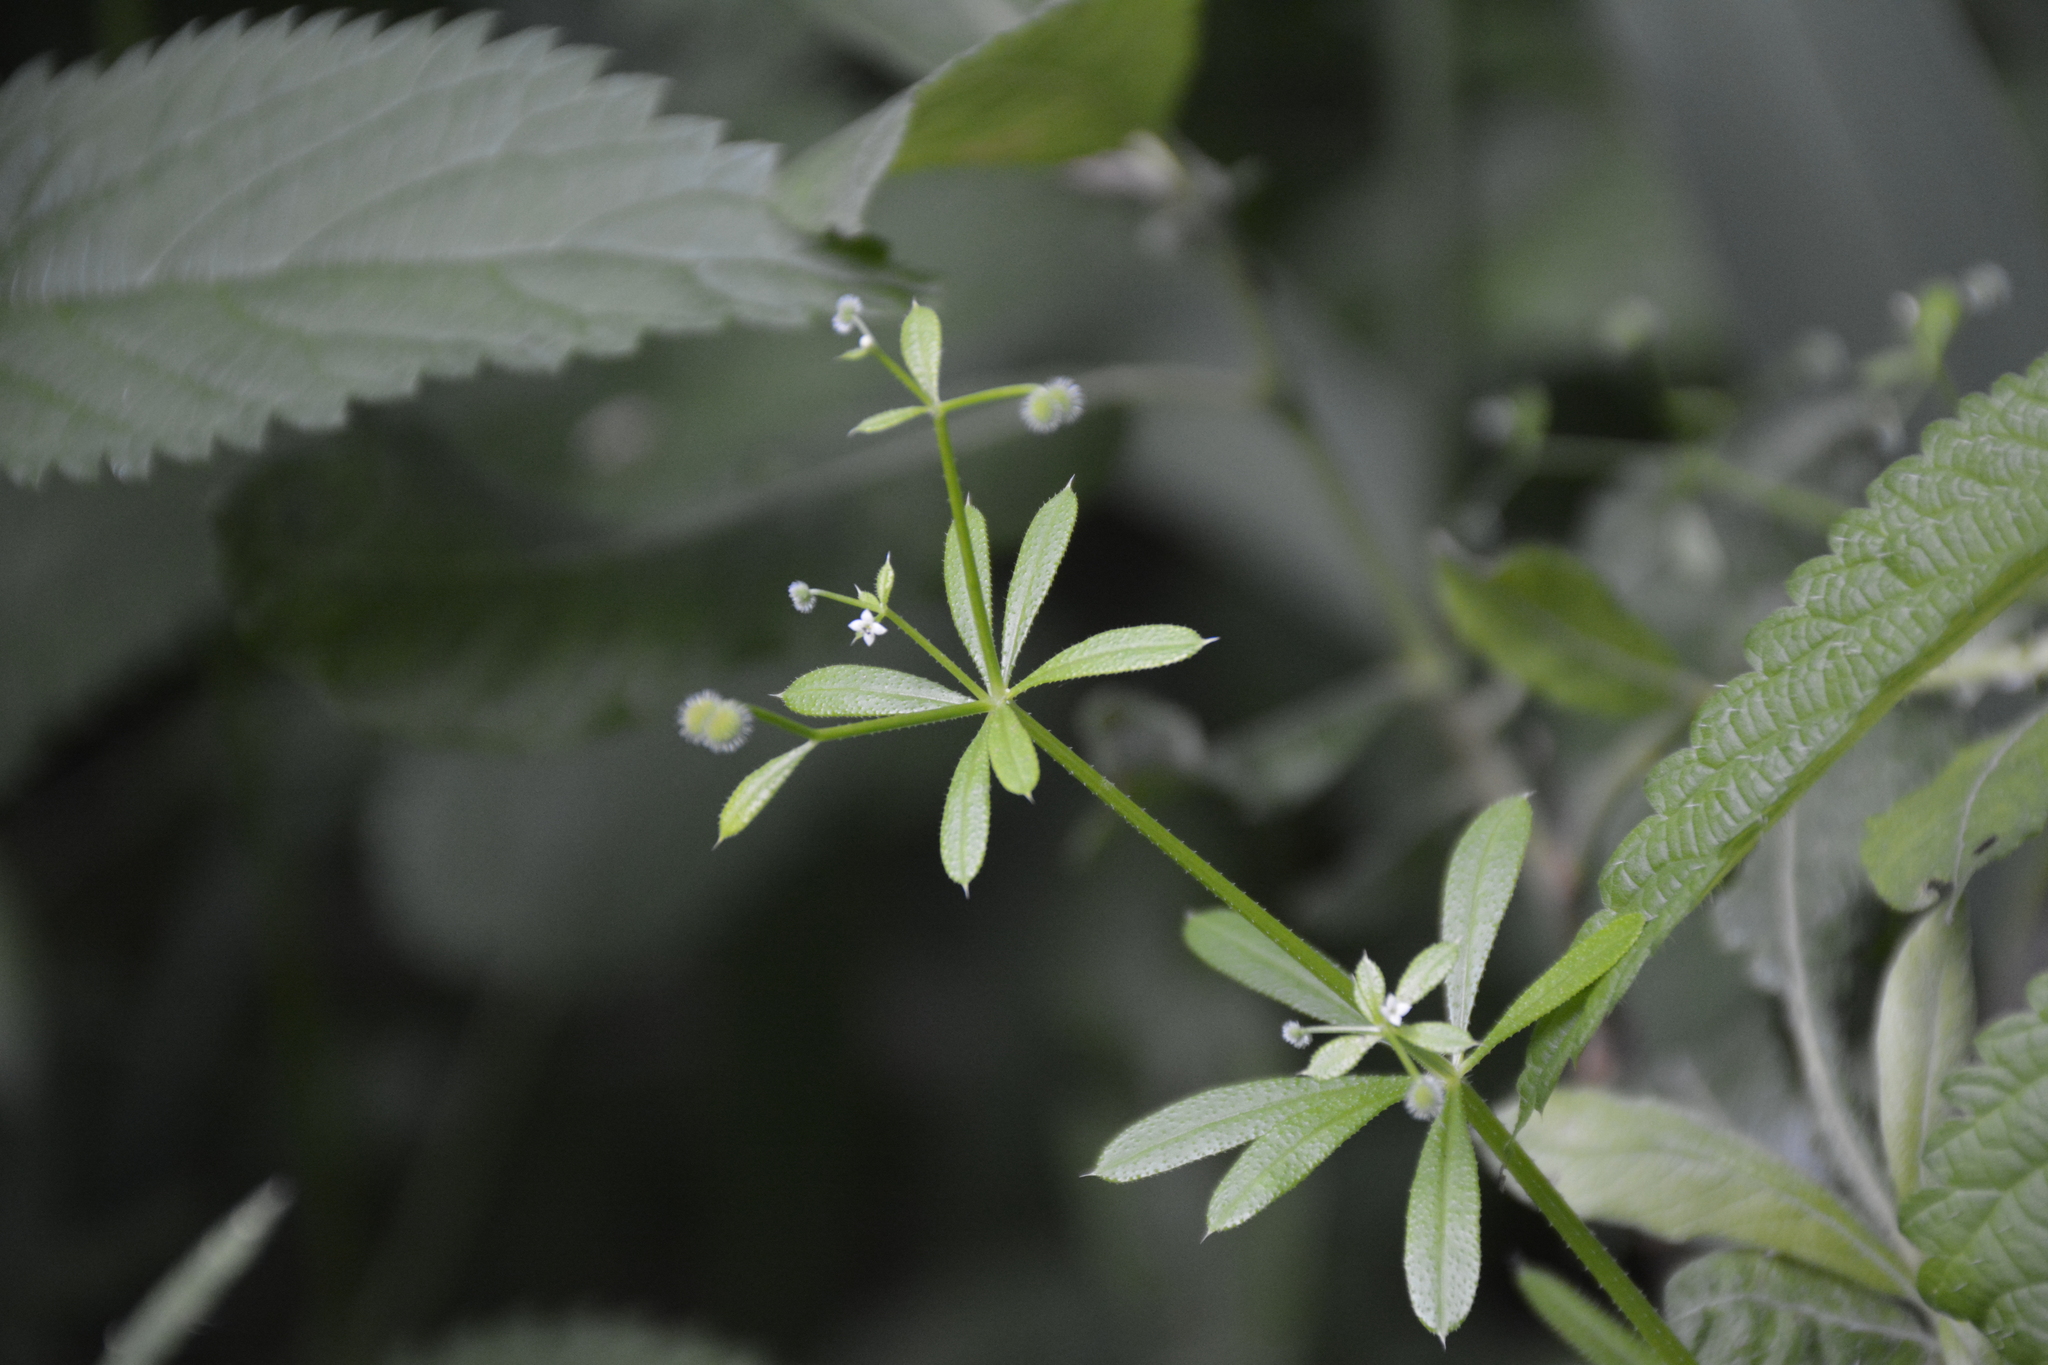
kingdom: Plantae
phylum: Tracheophyta
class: Magnoliopsida
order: Gentianales
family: Rubiaceae
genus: Galium
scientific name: Galium aparine
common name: Cleavers
